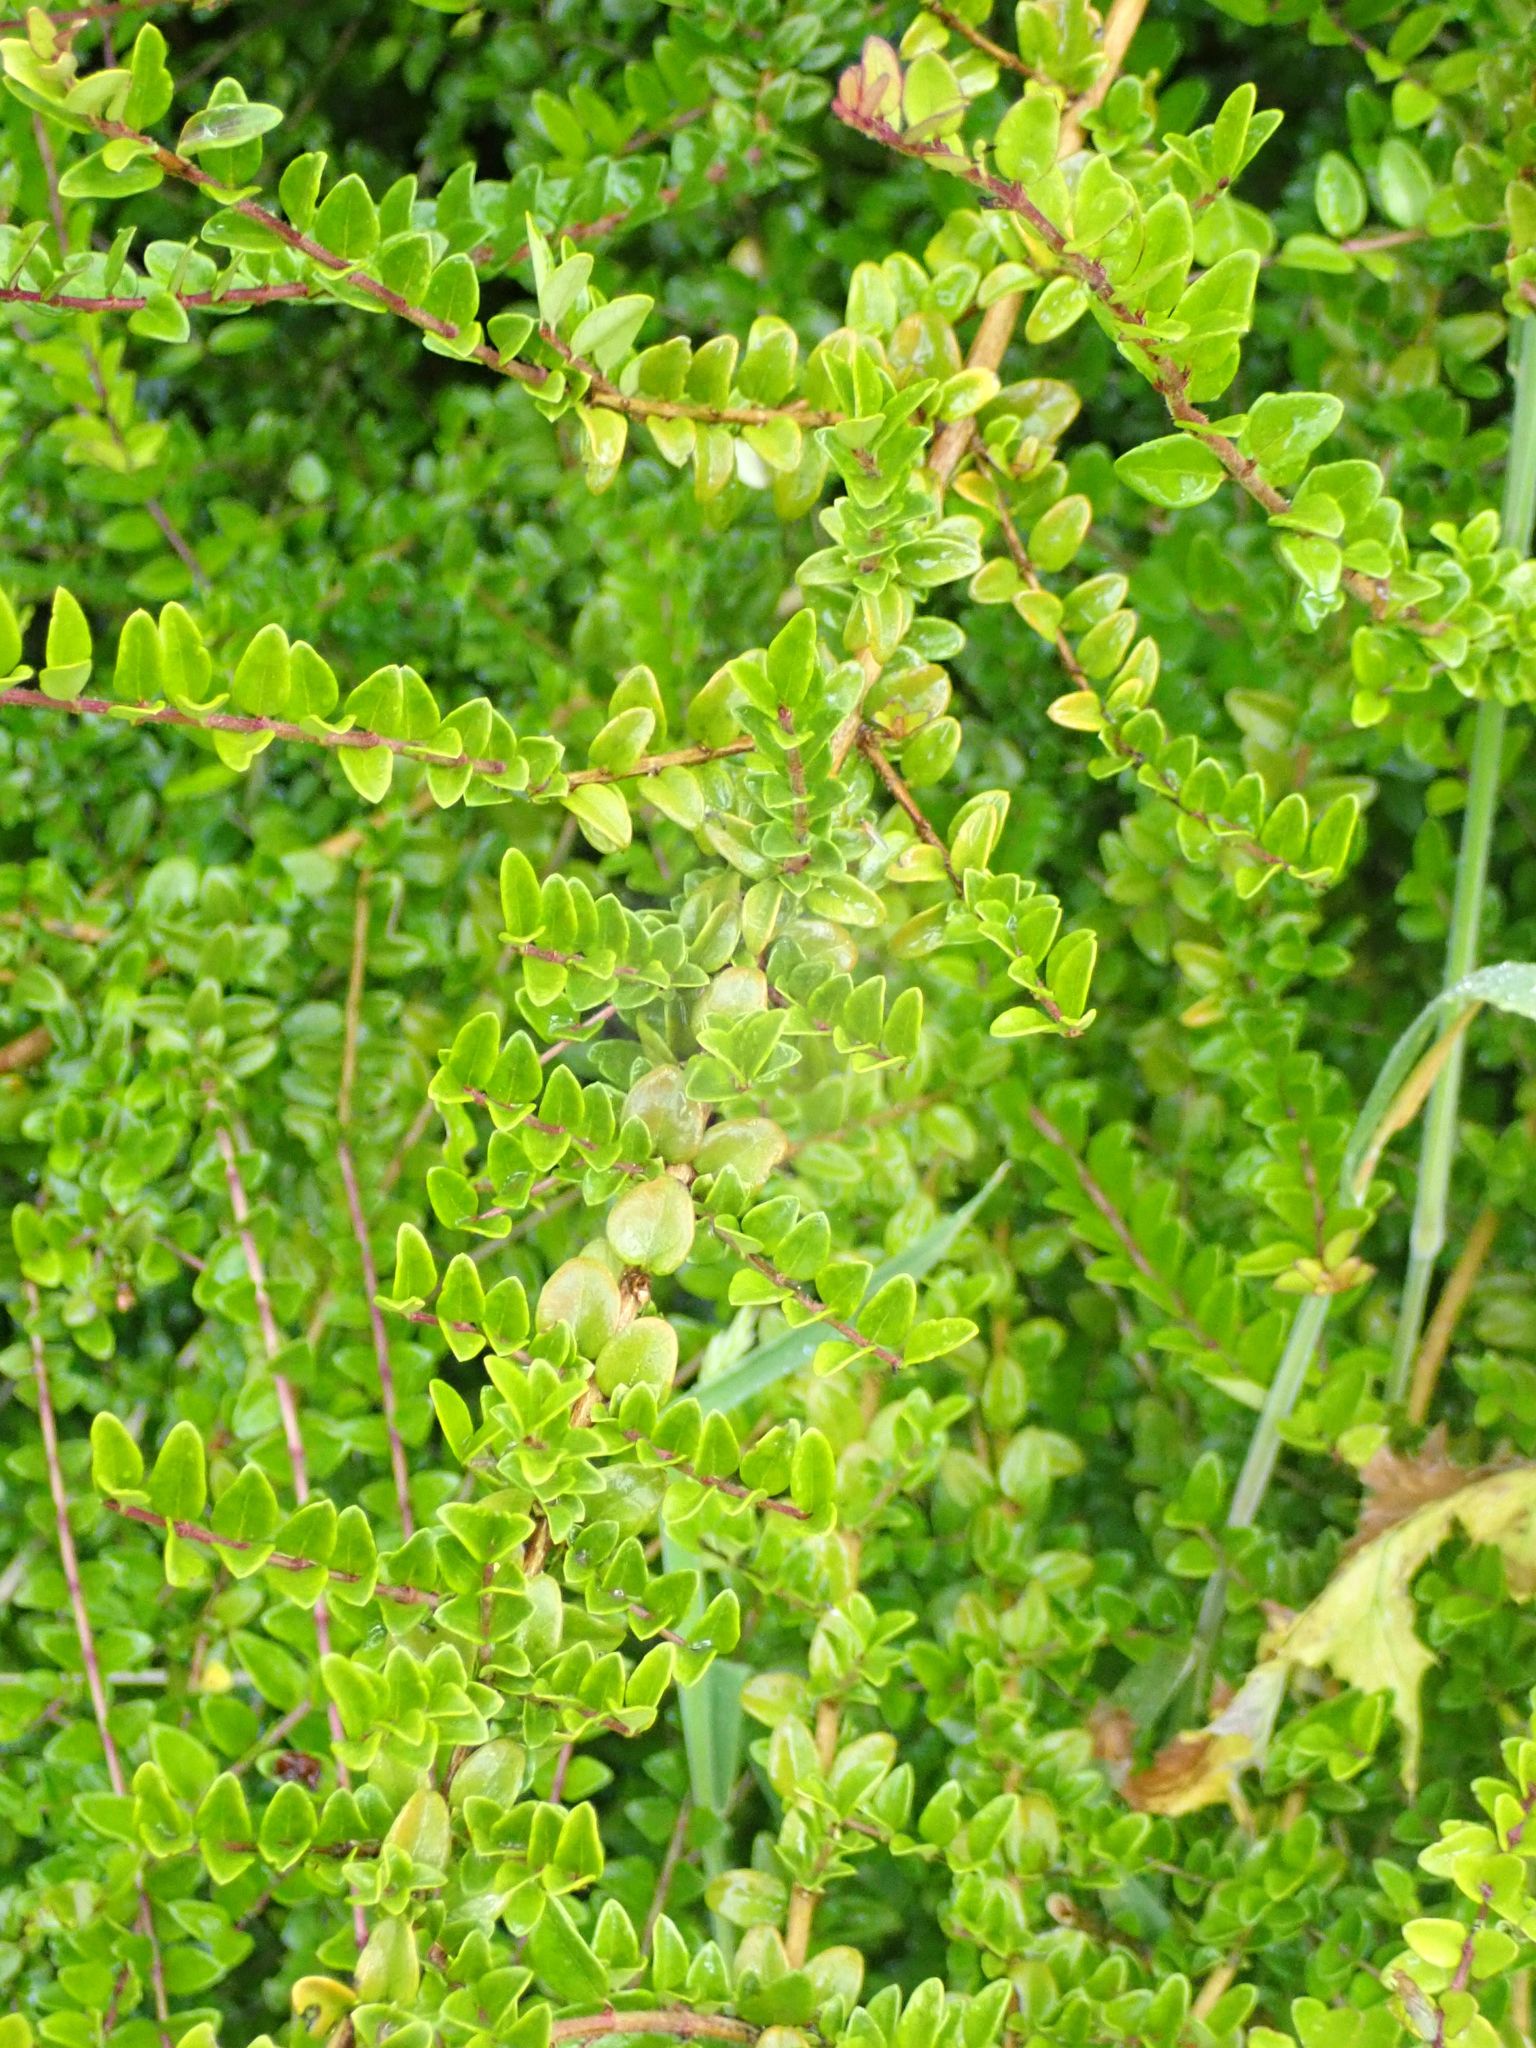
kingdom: Plantae
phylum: Tracheophyta
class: Magnoliopsida
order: Dipsacales
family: Caprifoliaceae
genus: Lonicera
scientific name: Lonicera pileata
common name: Box-leaved honeysuckle
